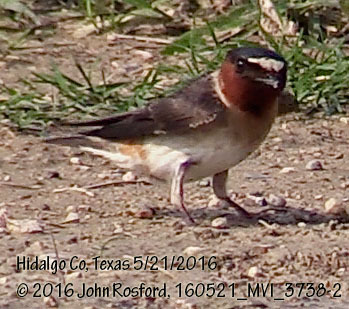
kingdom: Animalia
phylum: Chordata
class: Aves
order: Passeriformes
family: Hirundinidae
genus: Petrochelidon
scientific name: Petrochelidon pyrrhonota
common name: American cliff swallow
